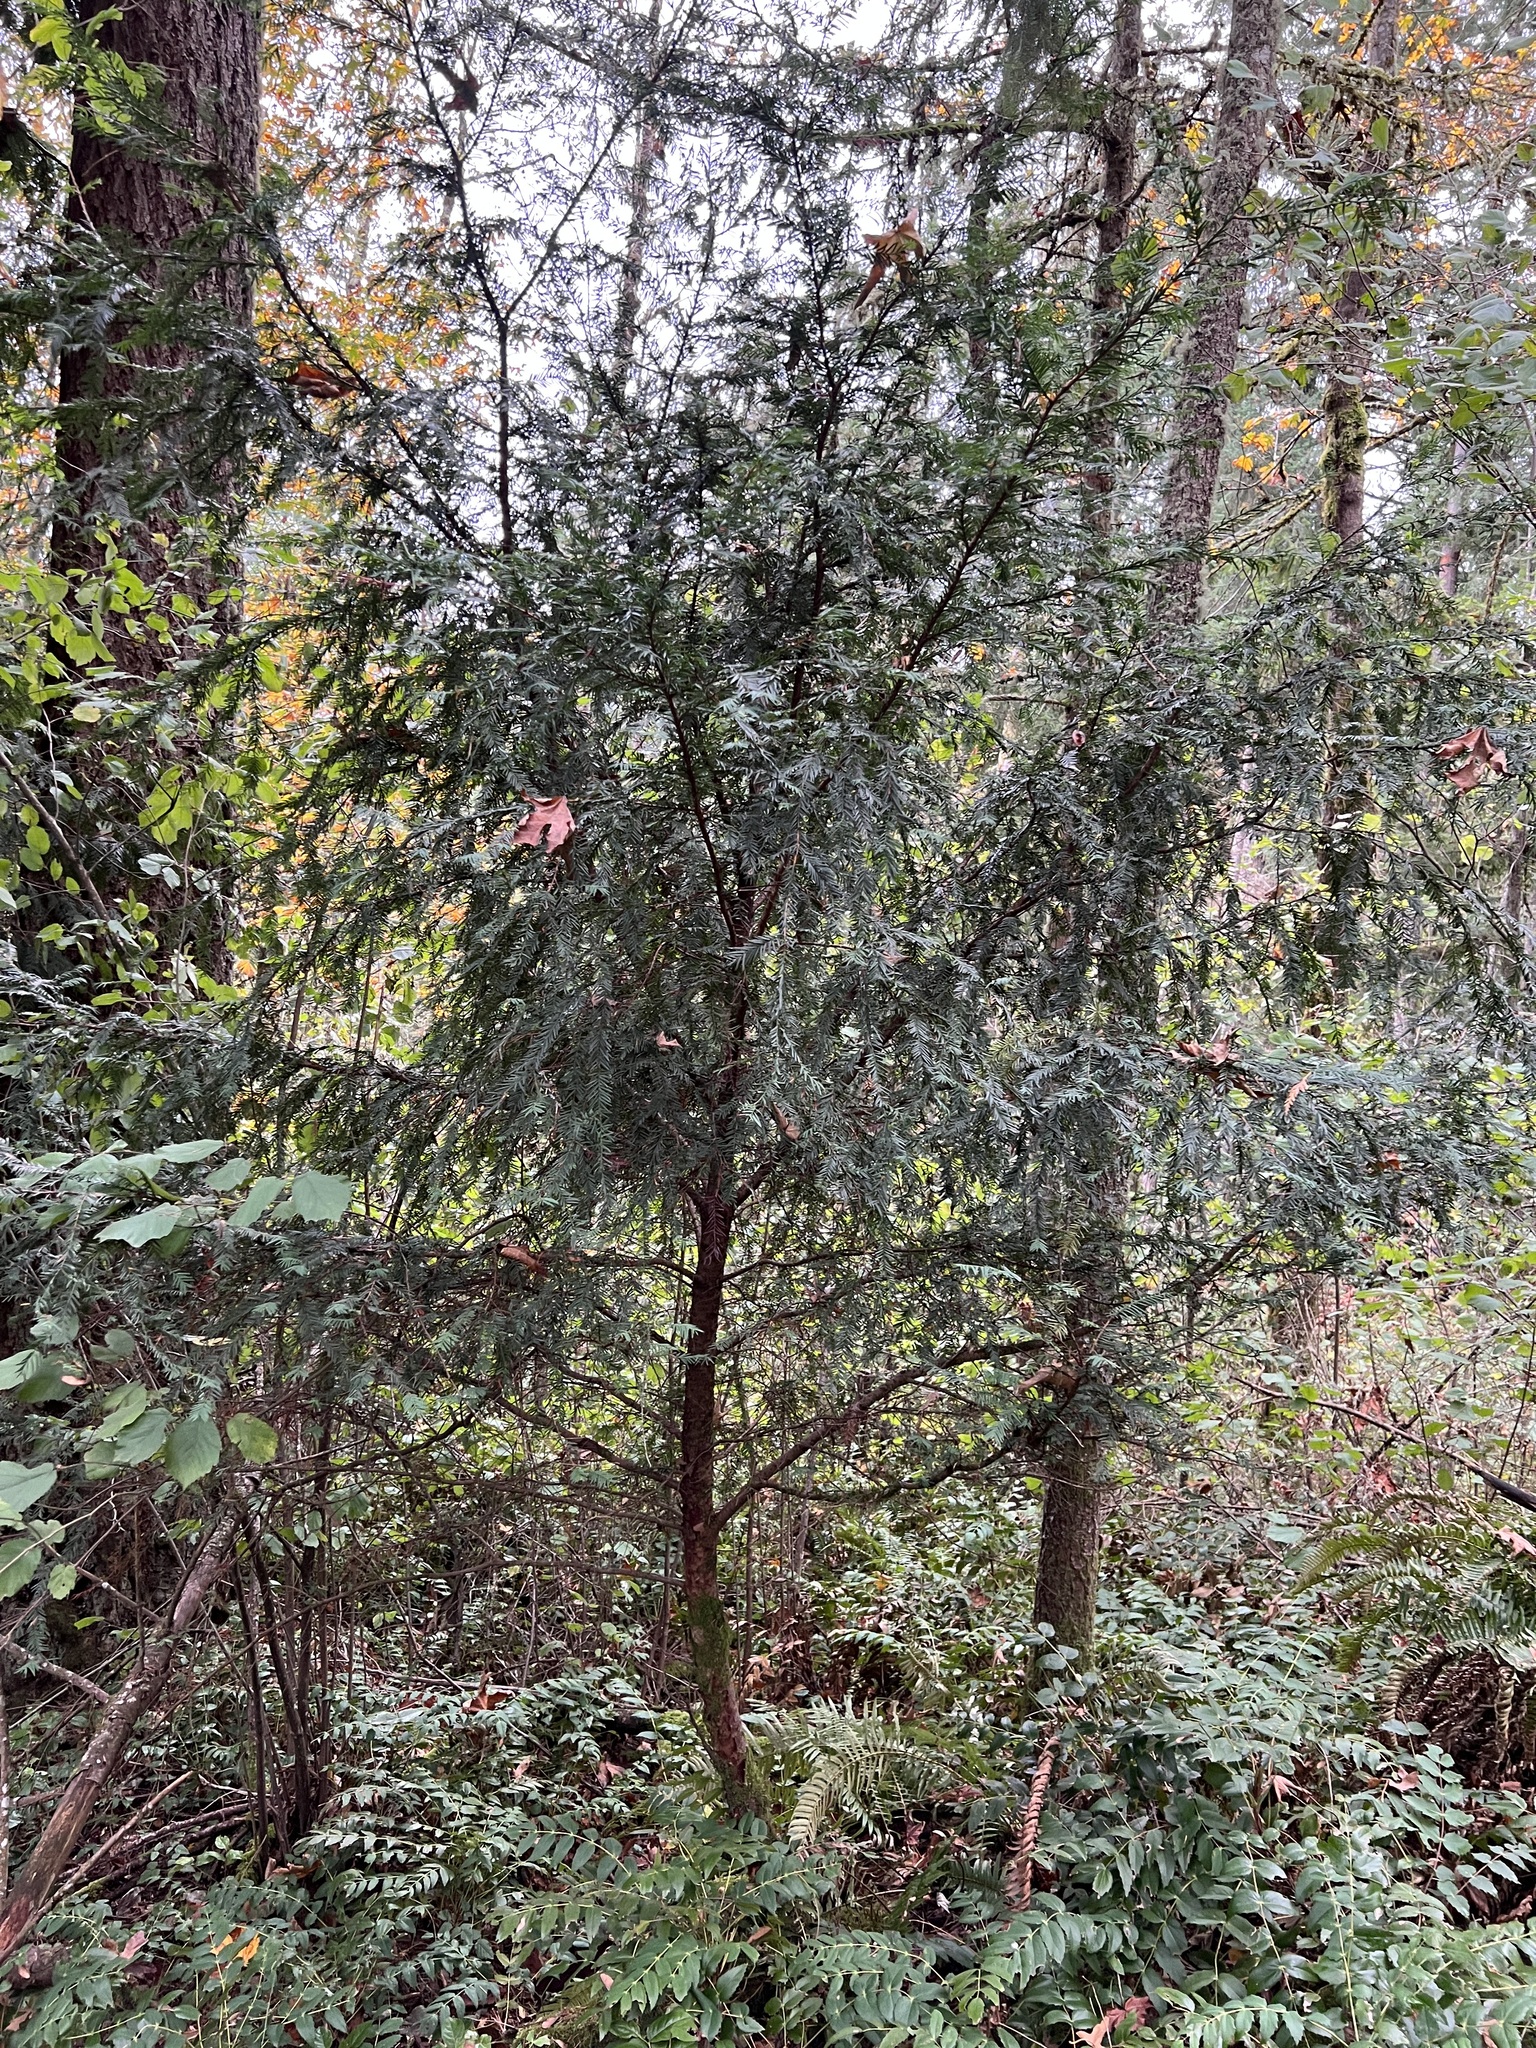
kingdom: Plantae
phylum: Tracheophyta
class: Pinopsida
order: Pinales
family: Taxaceae
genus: Taxus
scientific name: Taxus brevifolia
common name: Pacific yew
